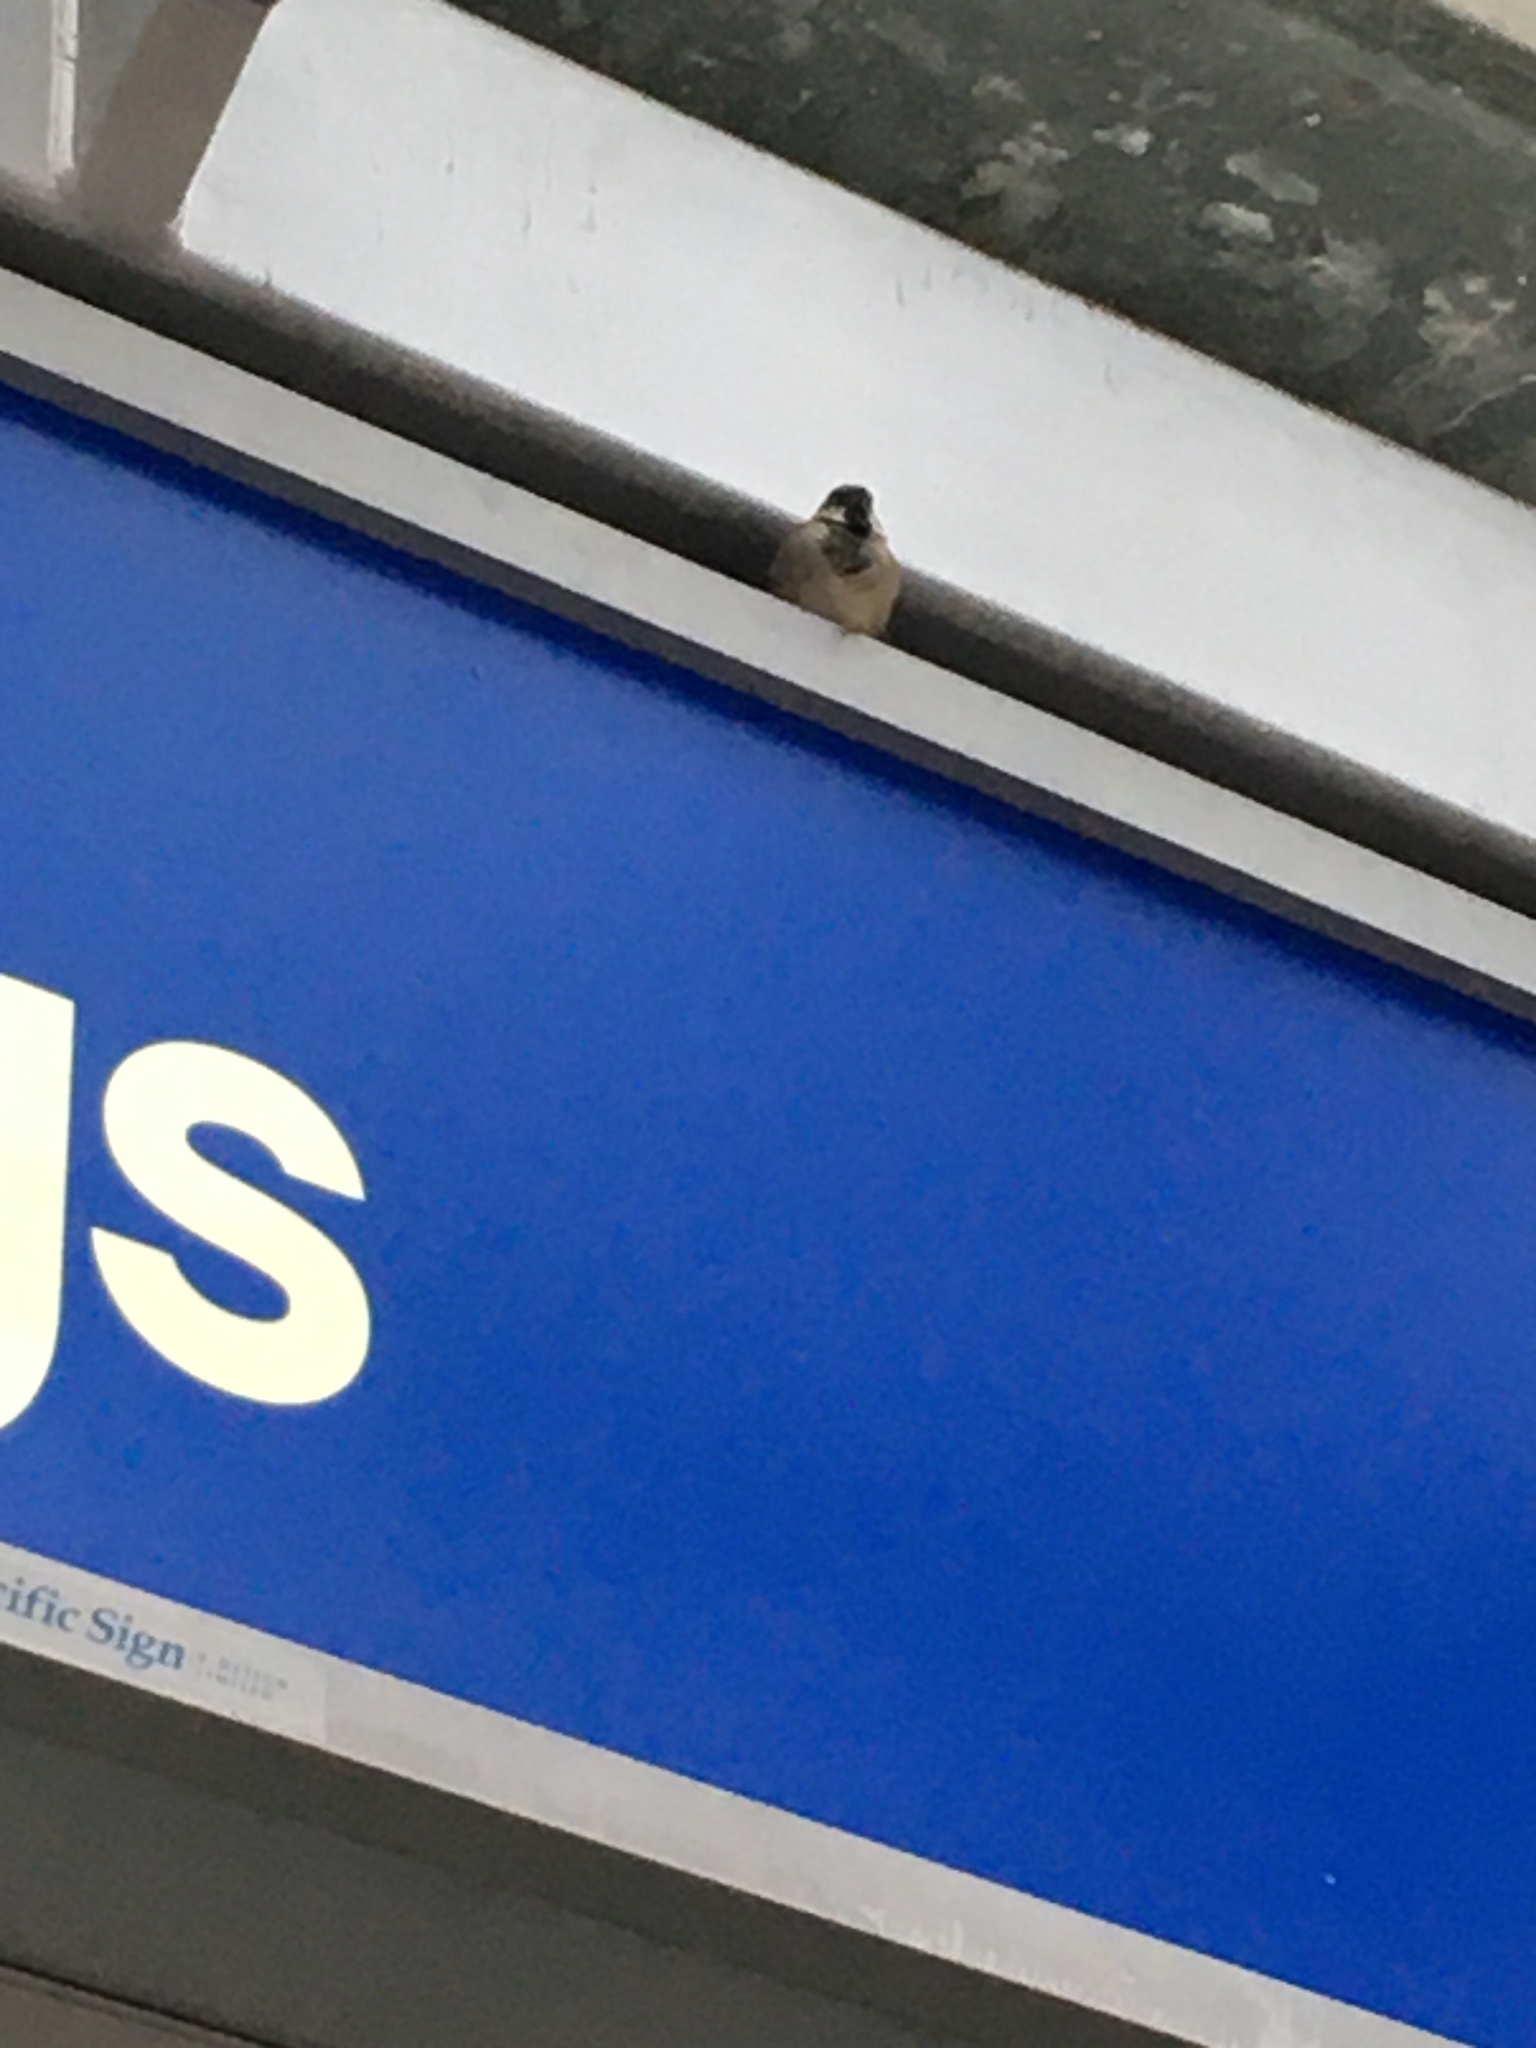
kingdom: Animalia
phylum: Chordata
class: Aves
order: Passeriformes
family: Passeridae
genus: Passer
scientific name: Passer domesticus
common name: House sparrow
